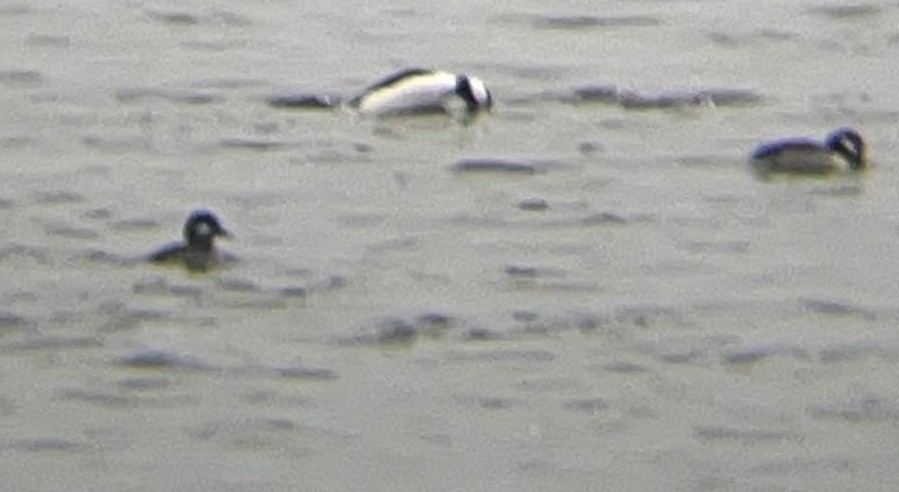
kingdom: Animalia
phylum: Chordata
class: Aves
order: Anseriformes
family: Anatidae
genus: Bucephala
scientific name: Bucephala albeola
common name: Bufflehead
